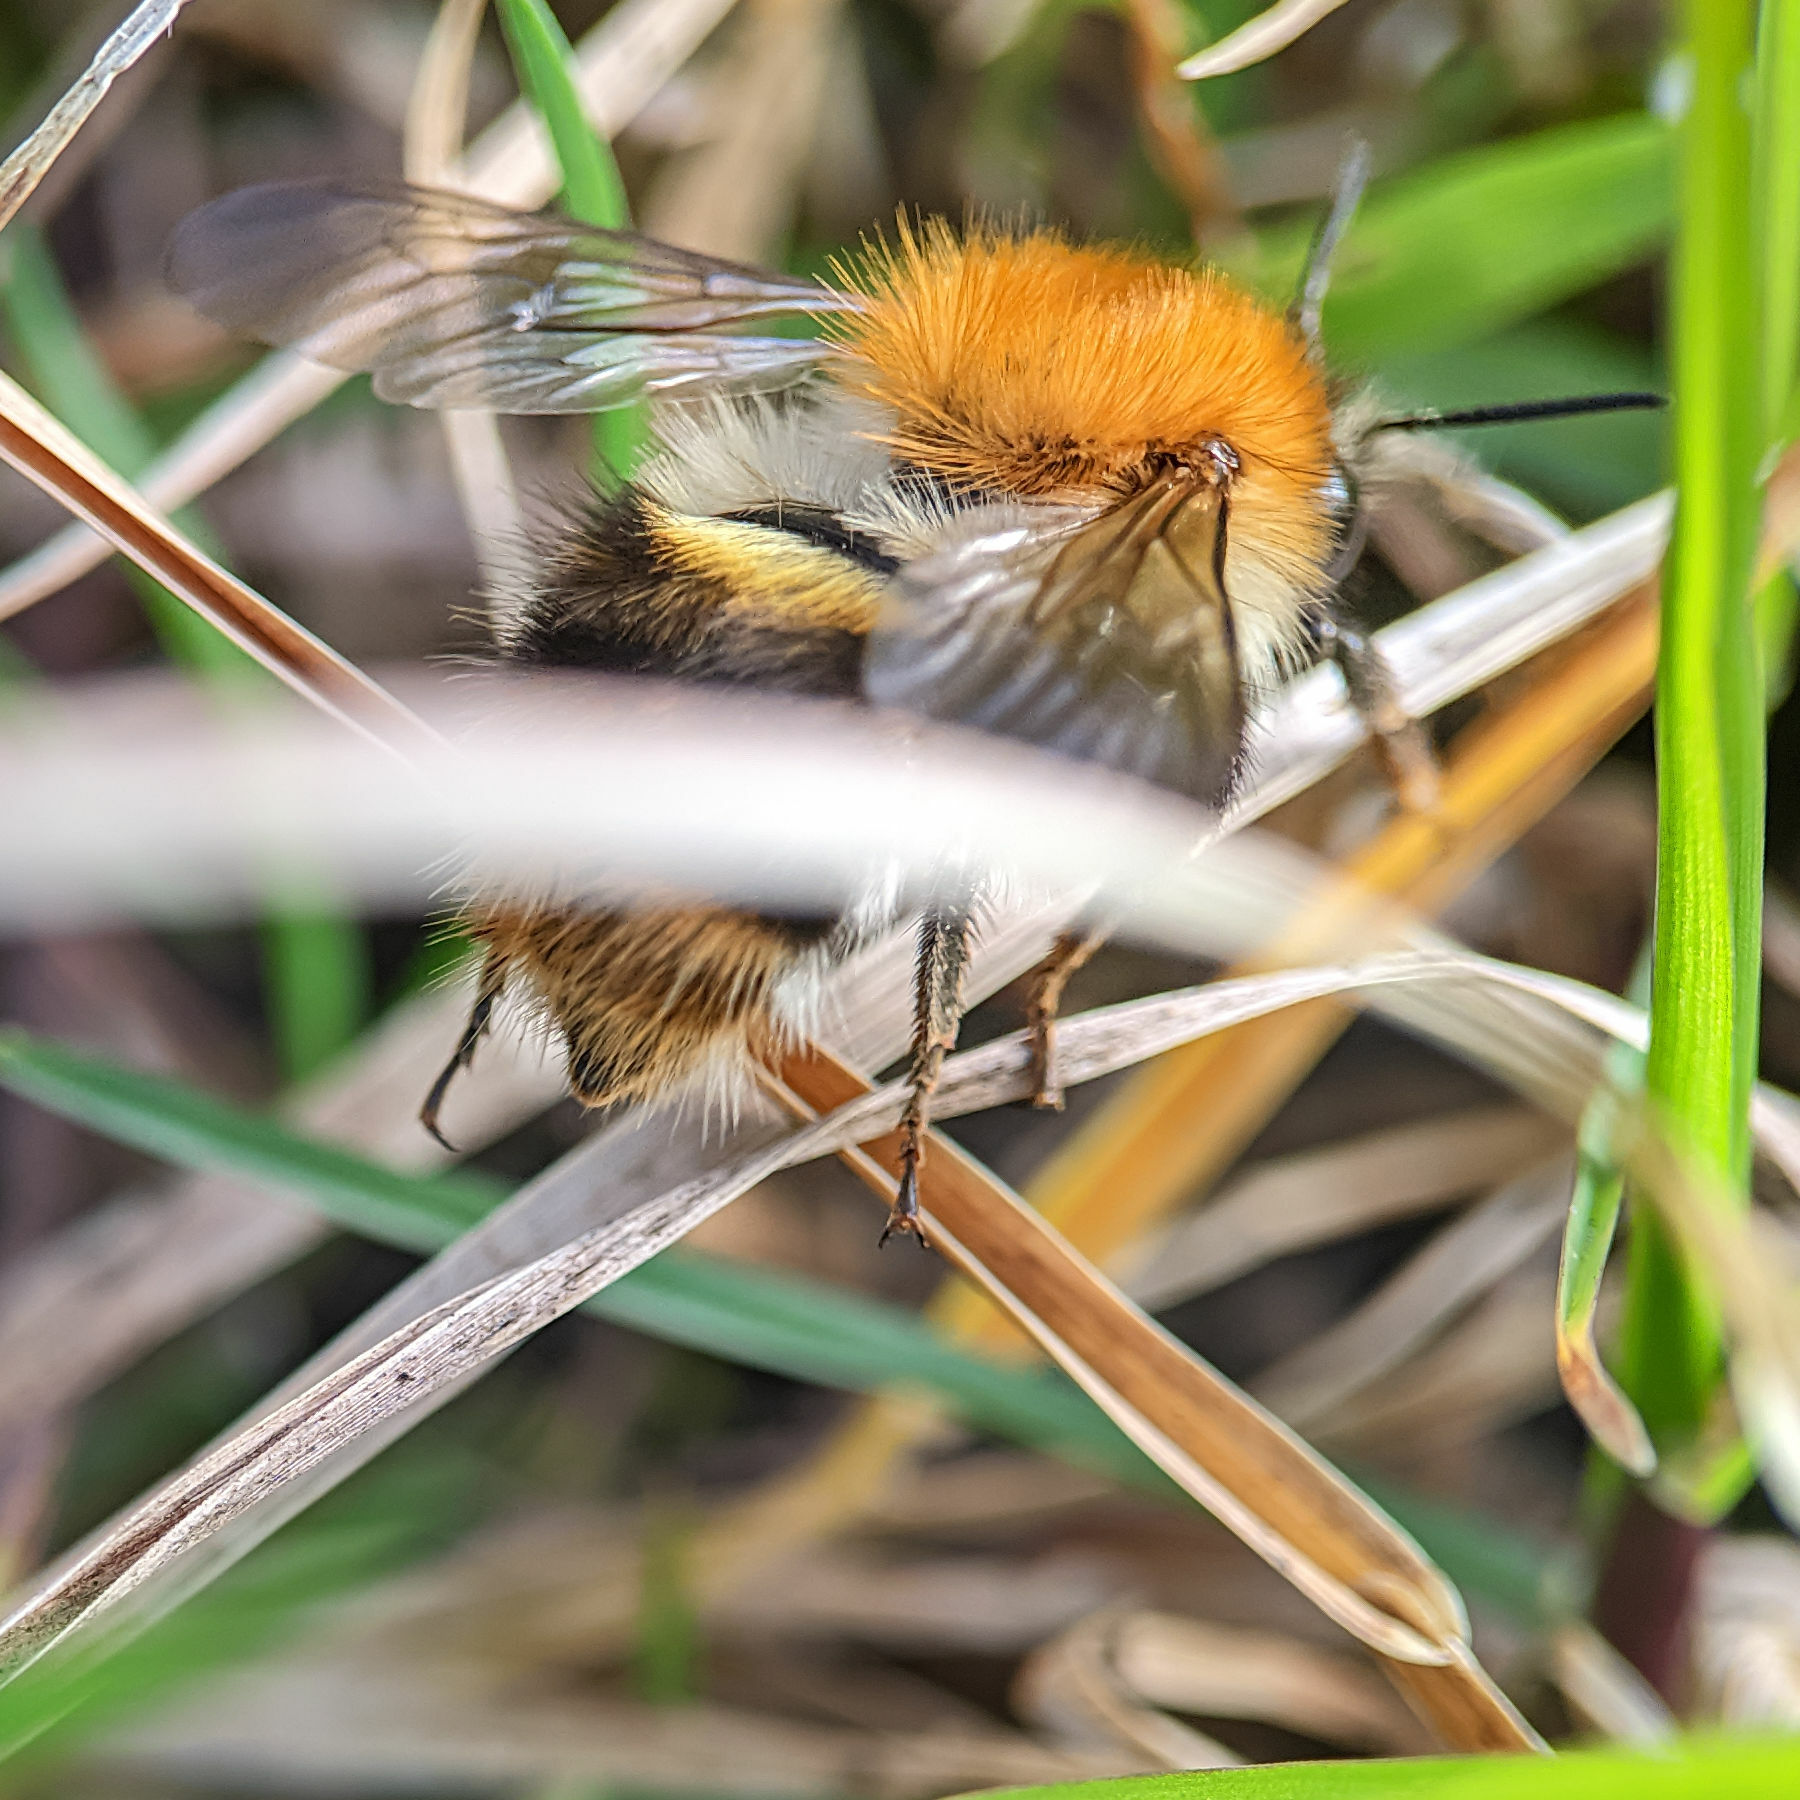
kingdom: Animalia
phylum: Arthropoda
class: Insecta
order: Hymenoptera
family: Apidae
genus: Bombus
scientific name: Bombus pascuorum
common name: Common carder bee
